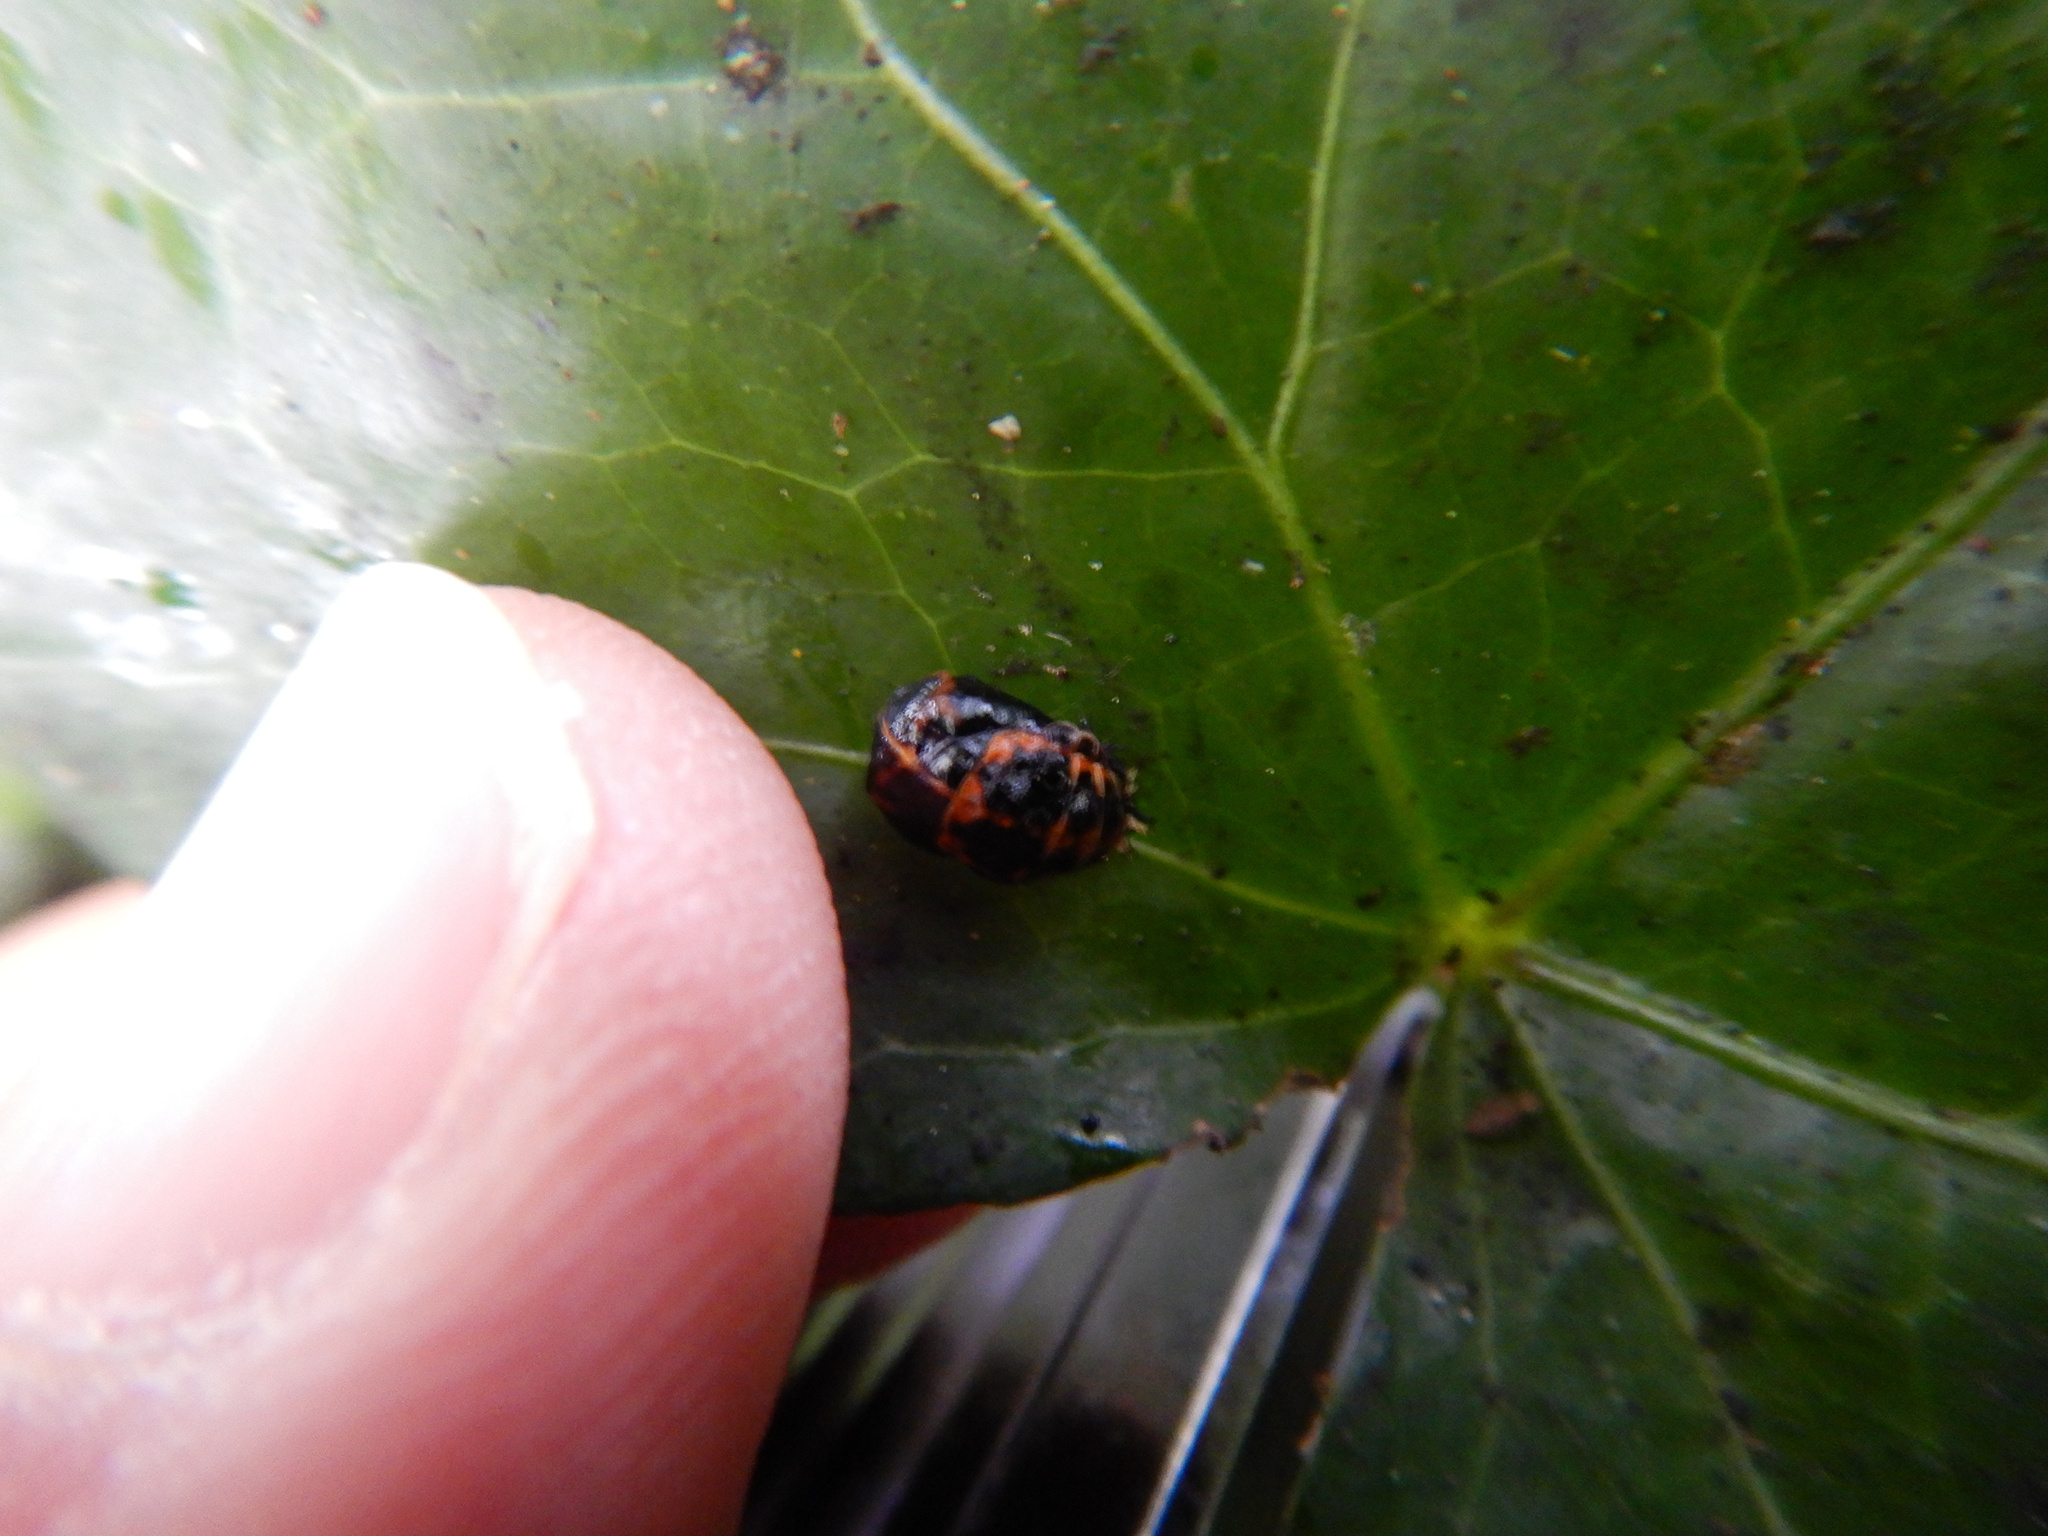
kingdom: Animalia
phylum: Arthropoda
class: Insecta
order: Coleoptera
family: Coccinellidae
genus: Harmonia
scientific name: Harmonia axyridis
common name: Harlequin ladybird
